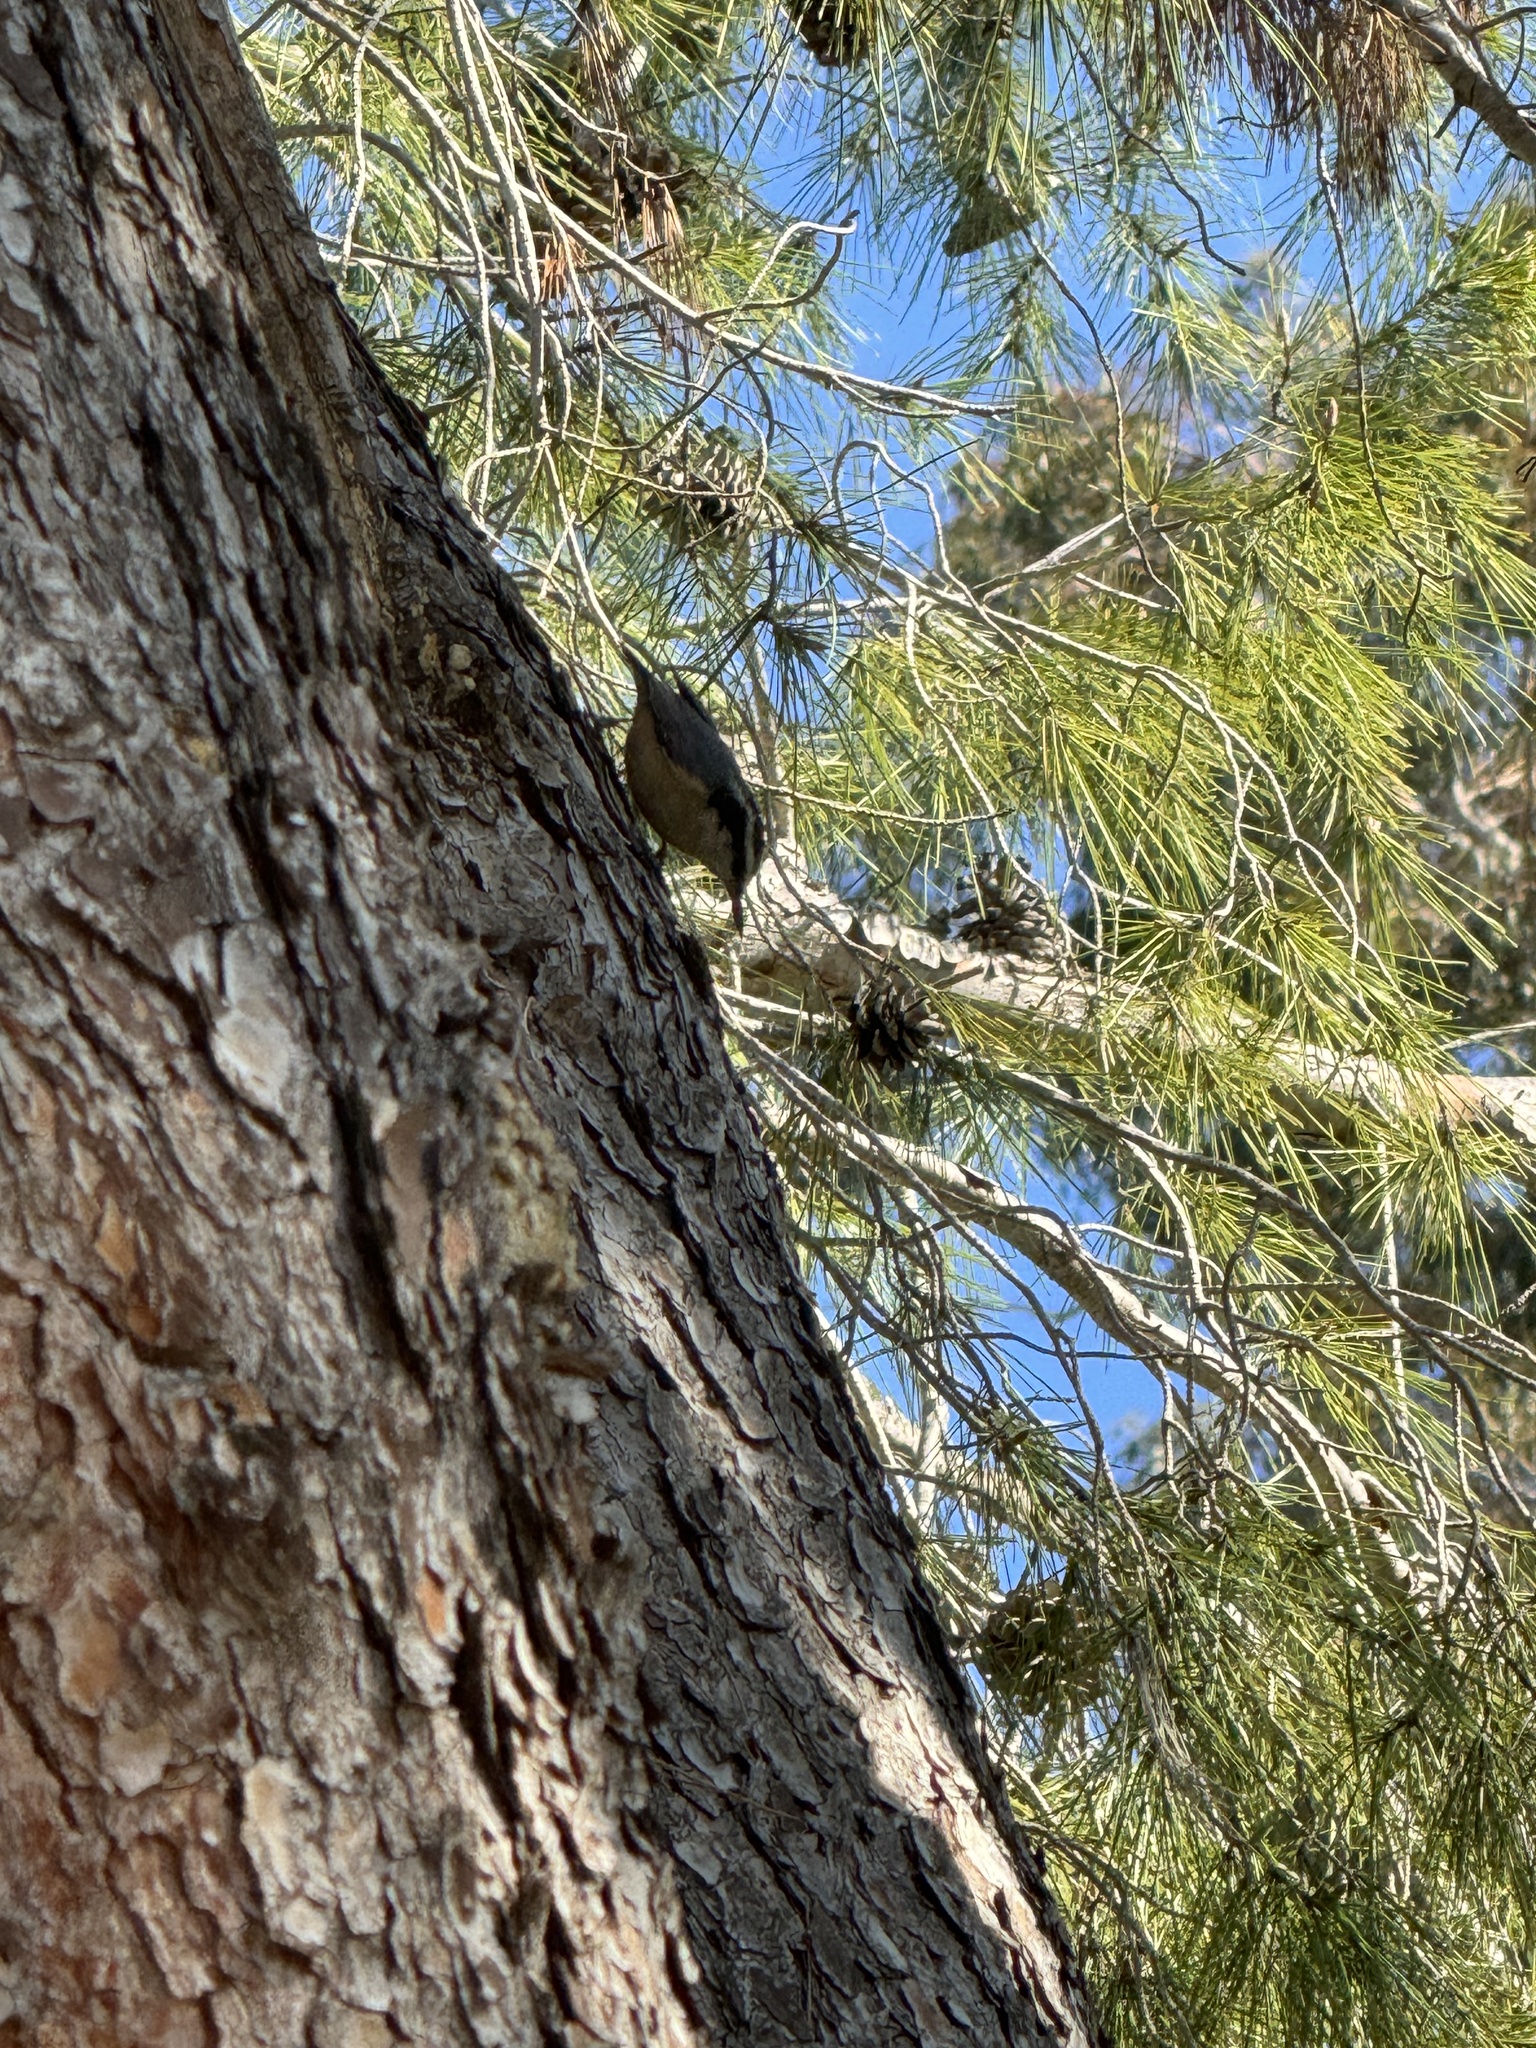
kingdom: Animalia
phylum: Chordata
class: Aves
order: Passeriformes
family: Sittidae
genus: Sitta
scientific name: Sitta canadensis
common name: Red-breasted nuthatch
